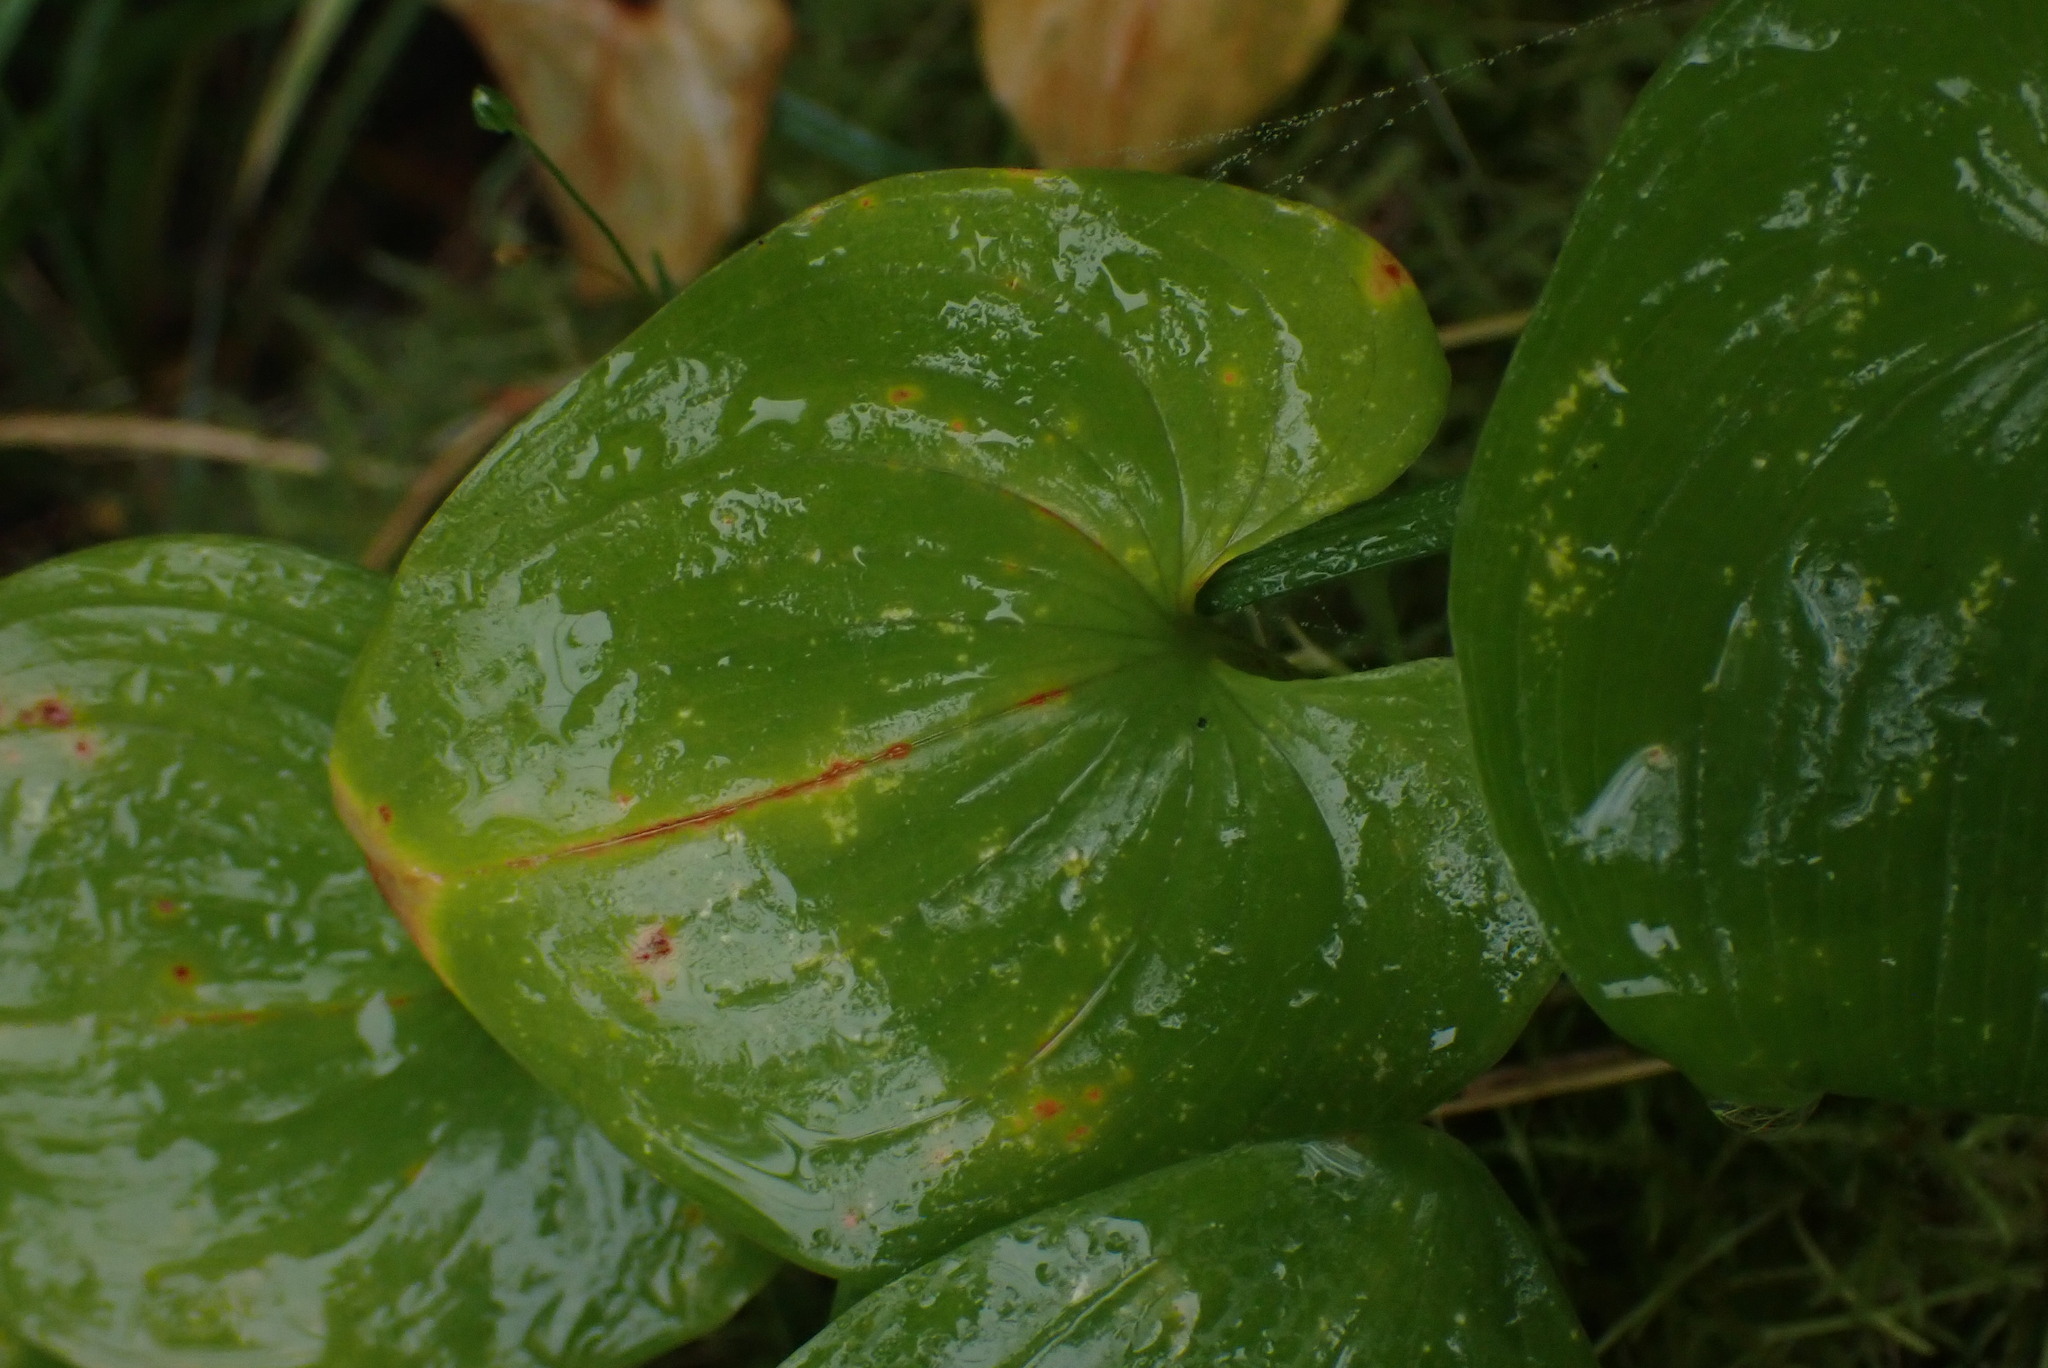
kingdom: Plantae
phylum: Tracheophyta
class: Liliopsida
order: Asparagales
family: Asparagaceae
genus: Maianthemum
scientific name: Maianthemum dilatatum
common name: False lily-of-the-valley
